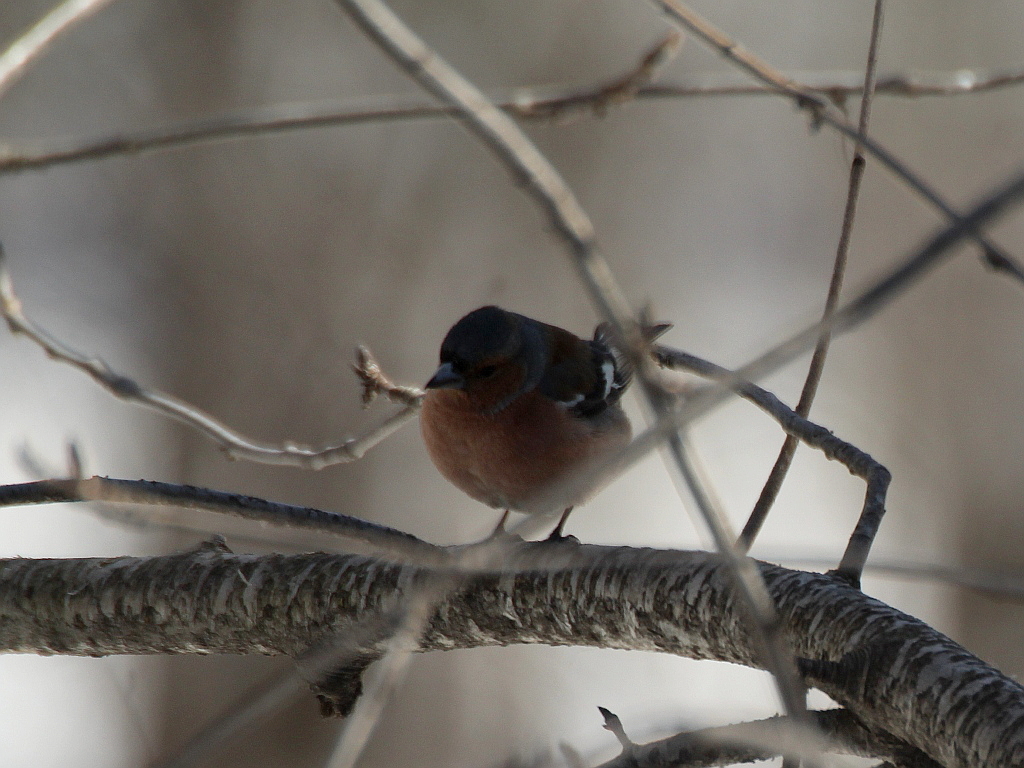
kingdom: Animalia
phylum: Chordata
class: Aves
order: Passeriformes
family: Fringillidae
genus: Fringilla
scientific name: Fringilla coelebs
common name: Common chaffinch
